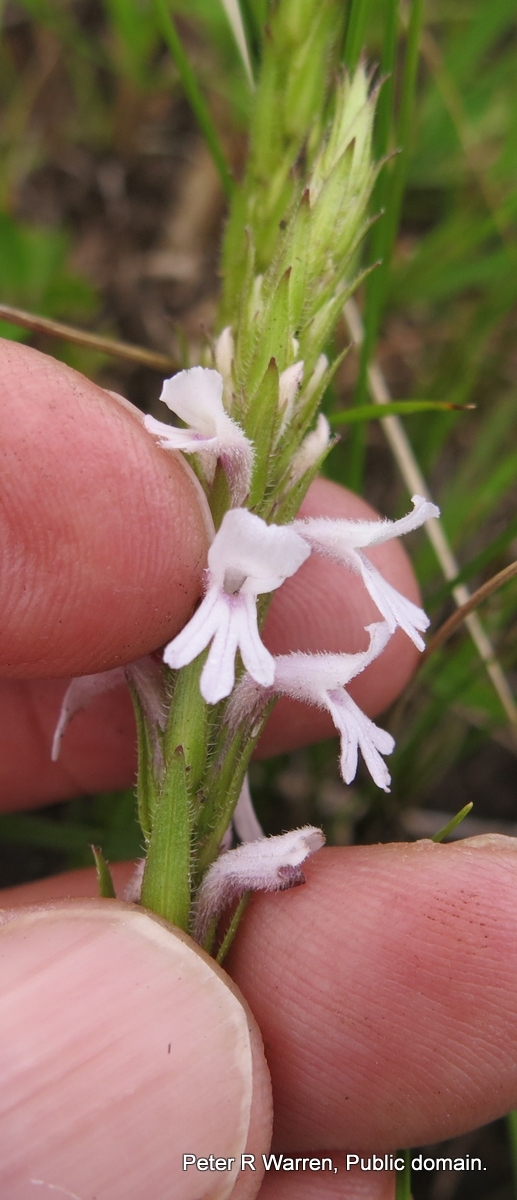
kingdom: Plantae
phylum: Tracheophyta
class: Magnoliopsida
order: Lamiales
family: Orobanchaceae
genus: Striga
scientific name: Striga bilabiata
